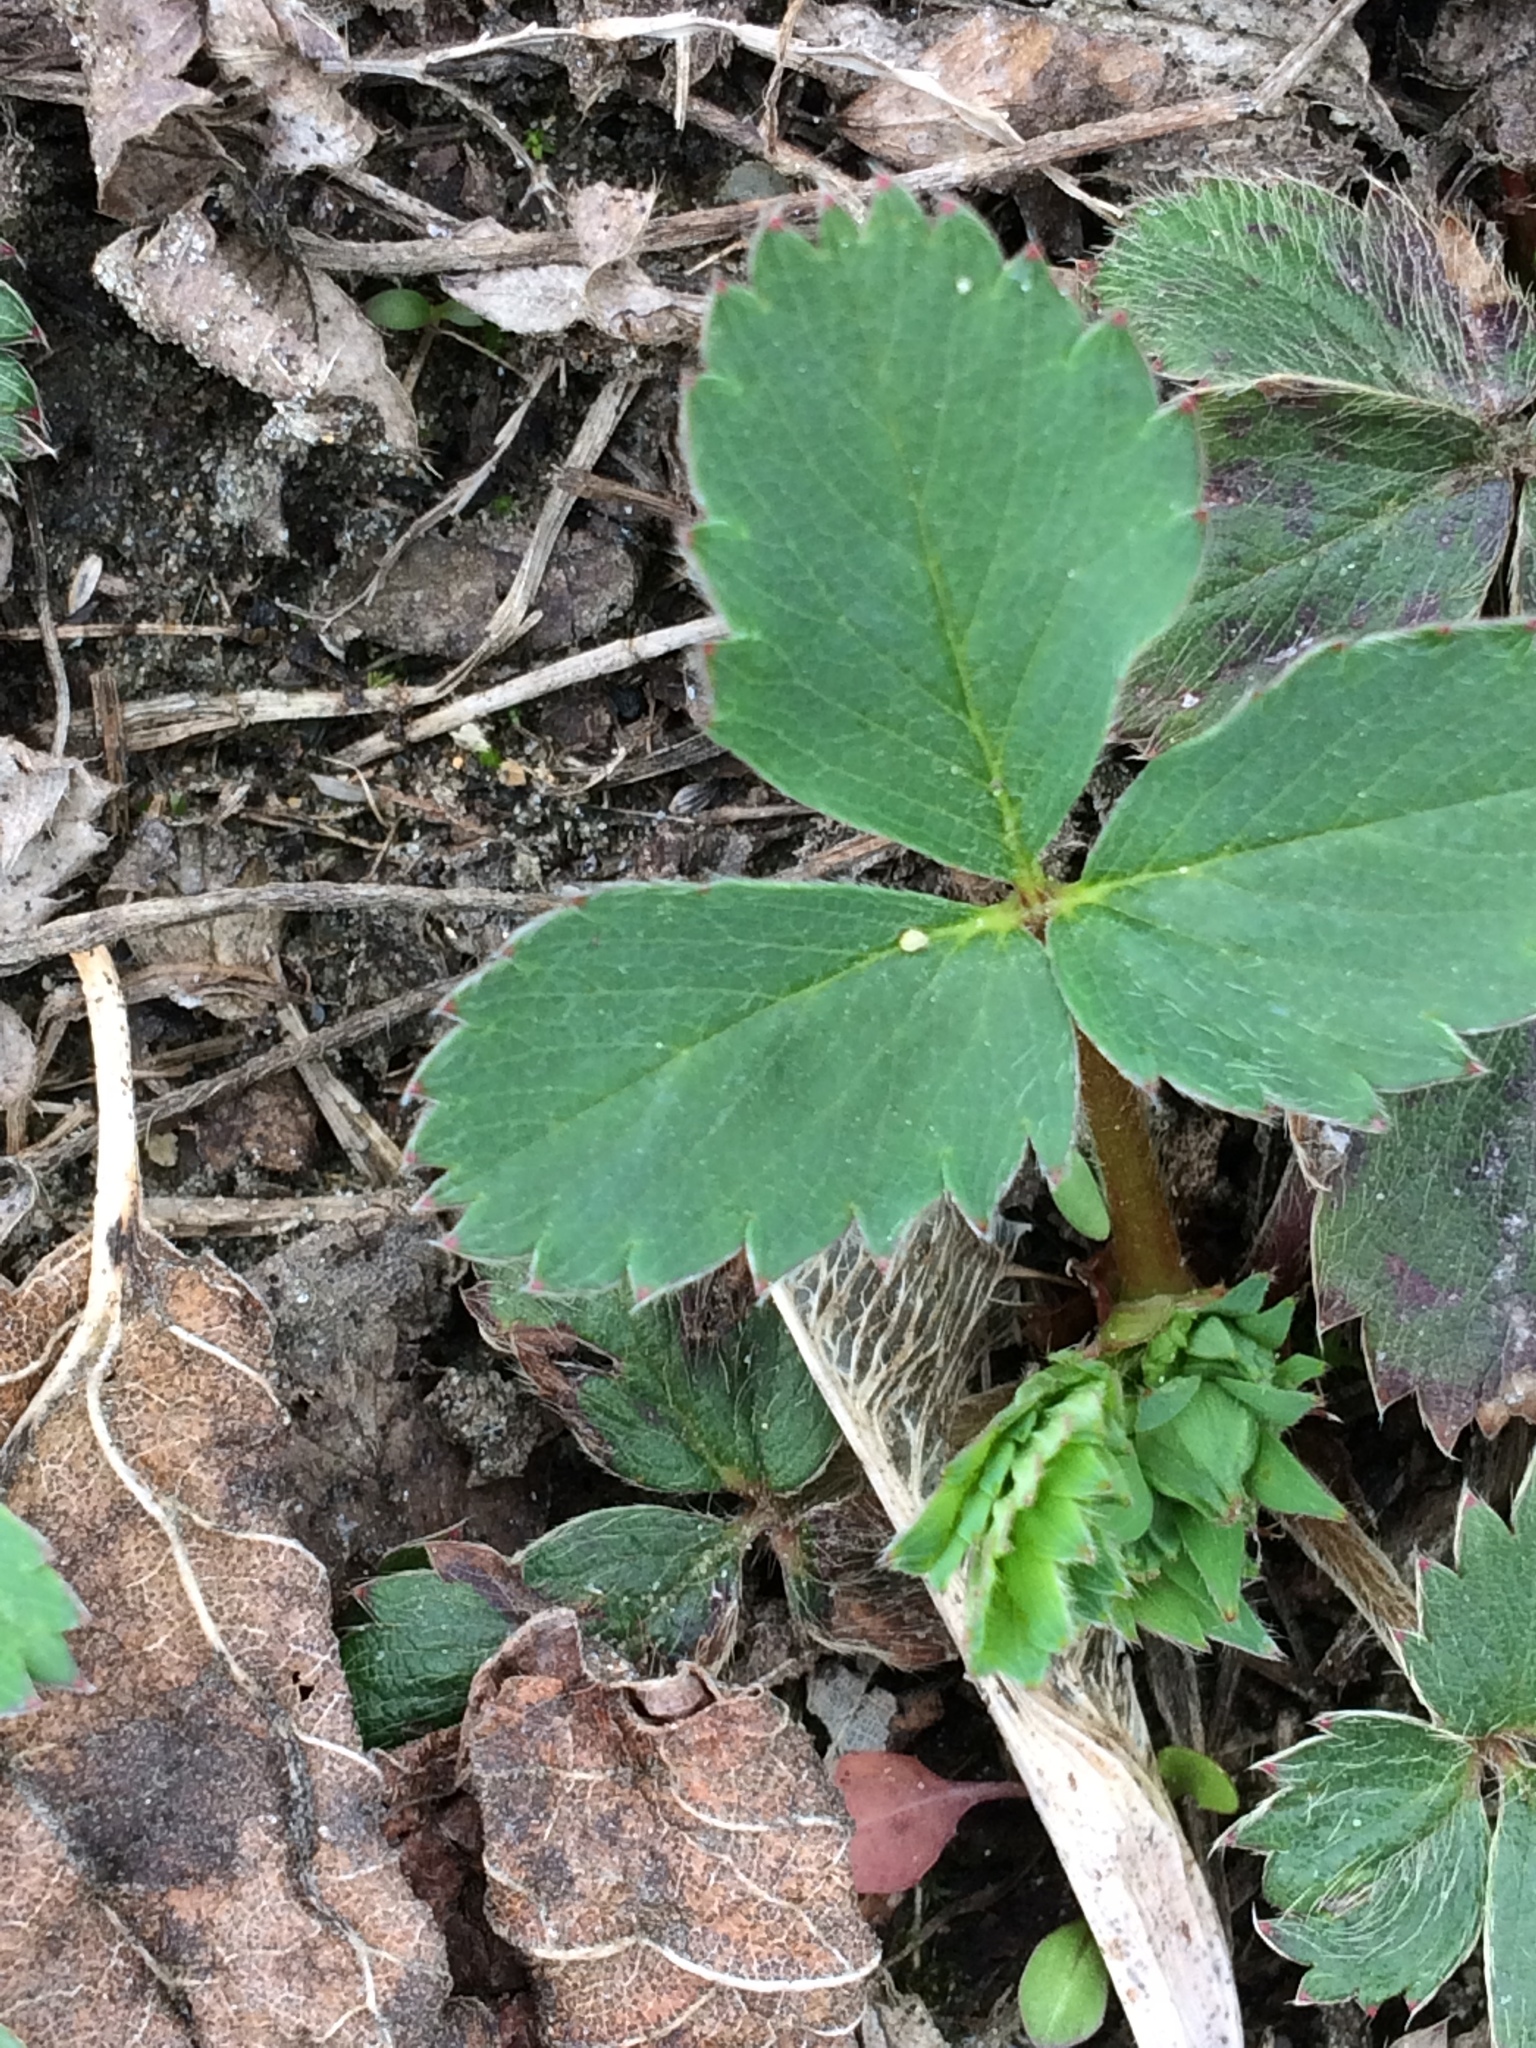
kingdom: Plantae
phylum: Tracheophyta
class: Magnoliopsida
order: Rosales
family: Rosaceae
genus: Fragaria
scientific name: Fragaria virginiana
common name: Thickleaved wild strawberry
